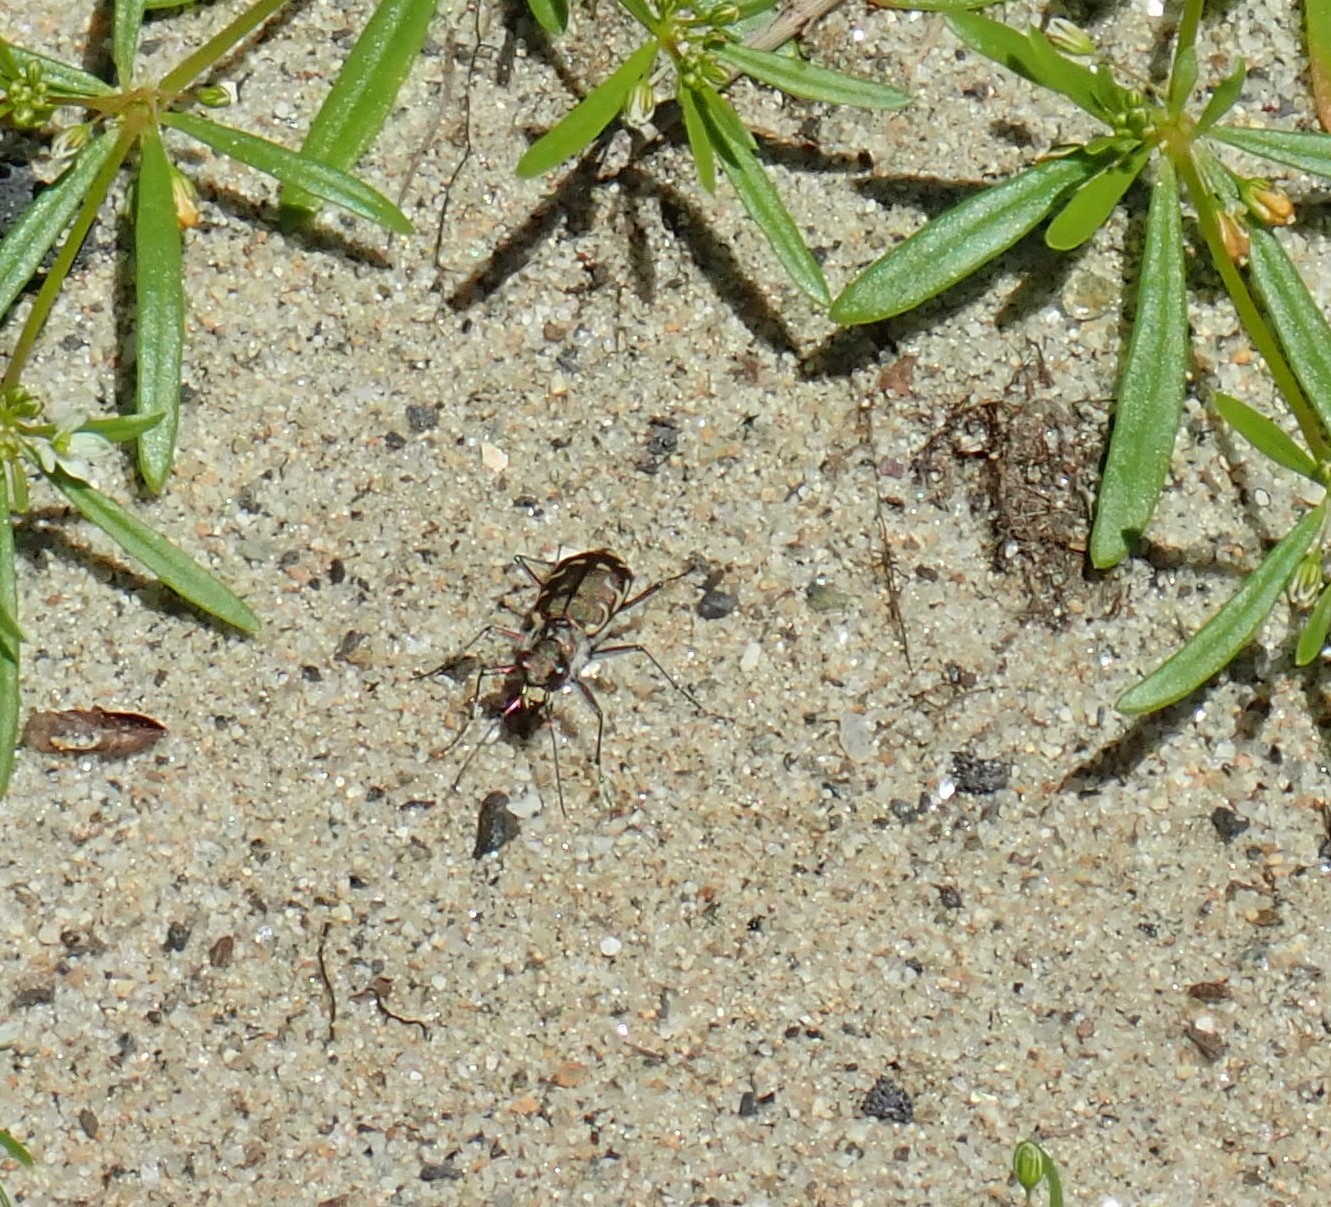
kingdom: Animalia
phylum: Arthropoda
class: Insecta
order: Coleoptera
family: Carabidae
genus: Cicindela
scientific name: Cicindela repanda
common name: Bronzed tiger beetle
